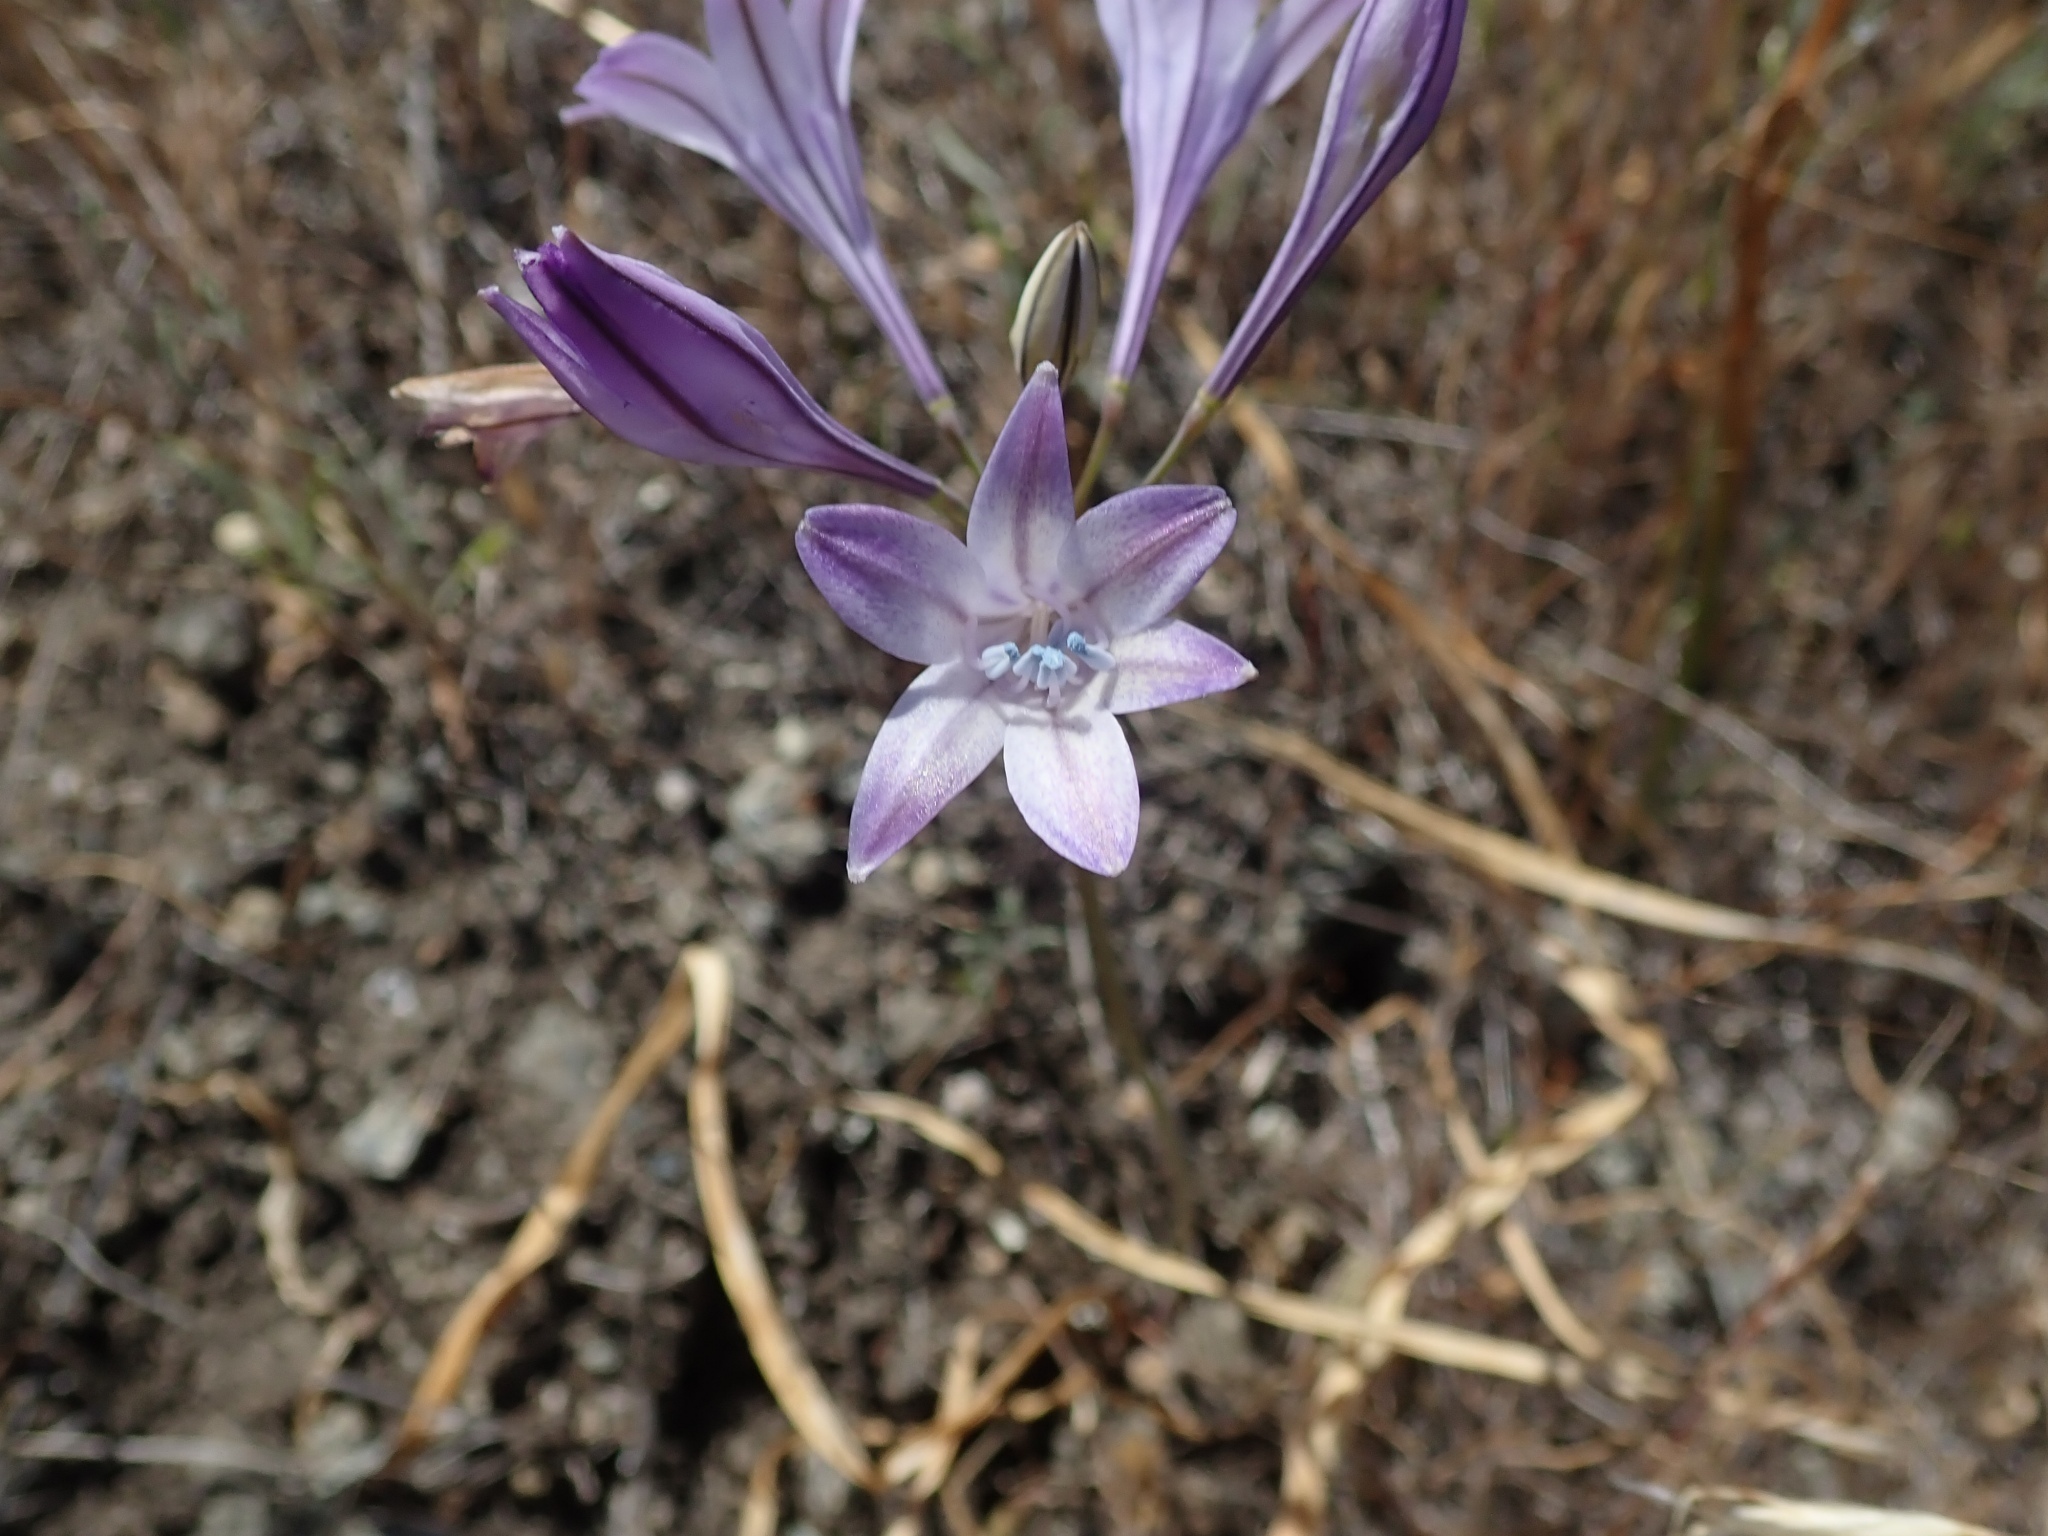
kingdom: Plantae
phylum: Tracheophyta
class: Liliopsida
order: Asparagales
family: Asparagaceae
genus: Triteleia
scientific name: Triteleia laxa
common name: Triplet-lily
